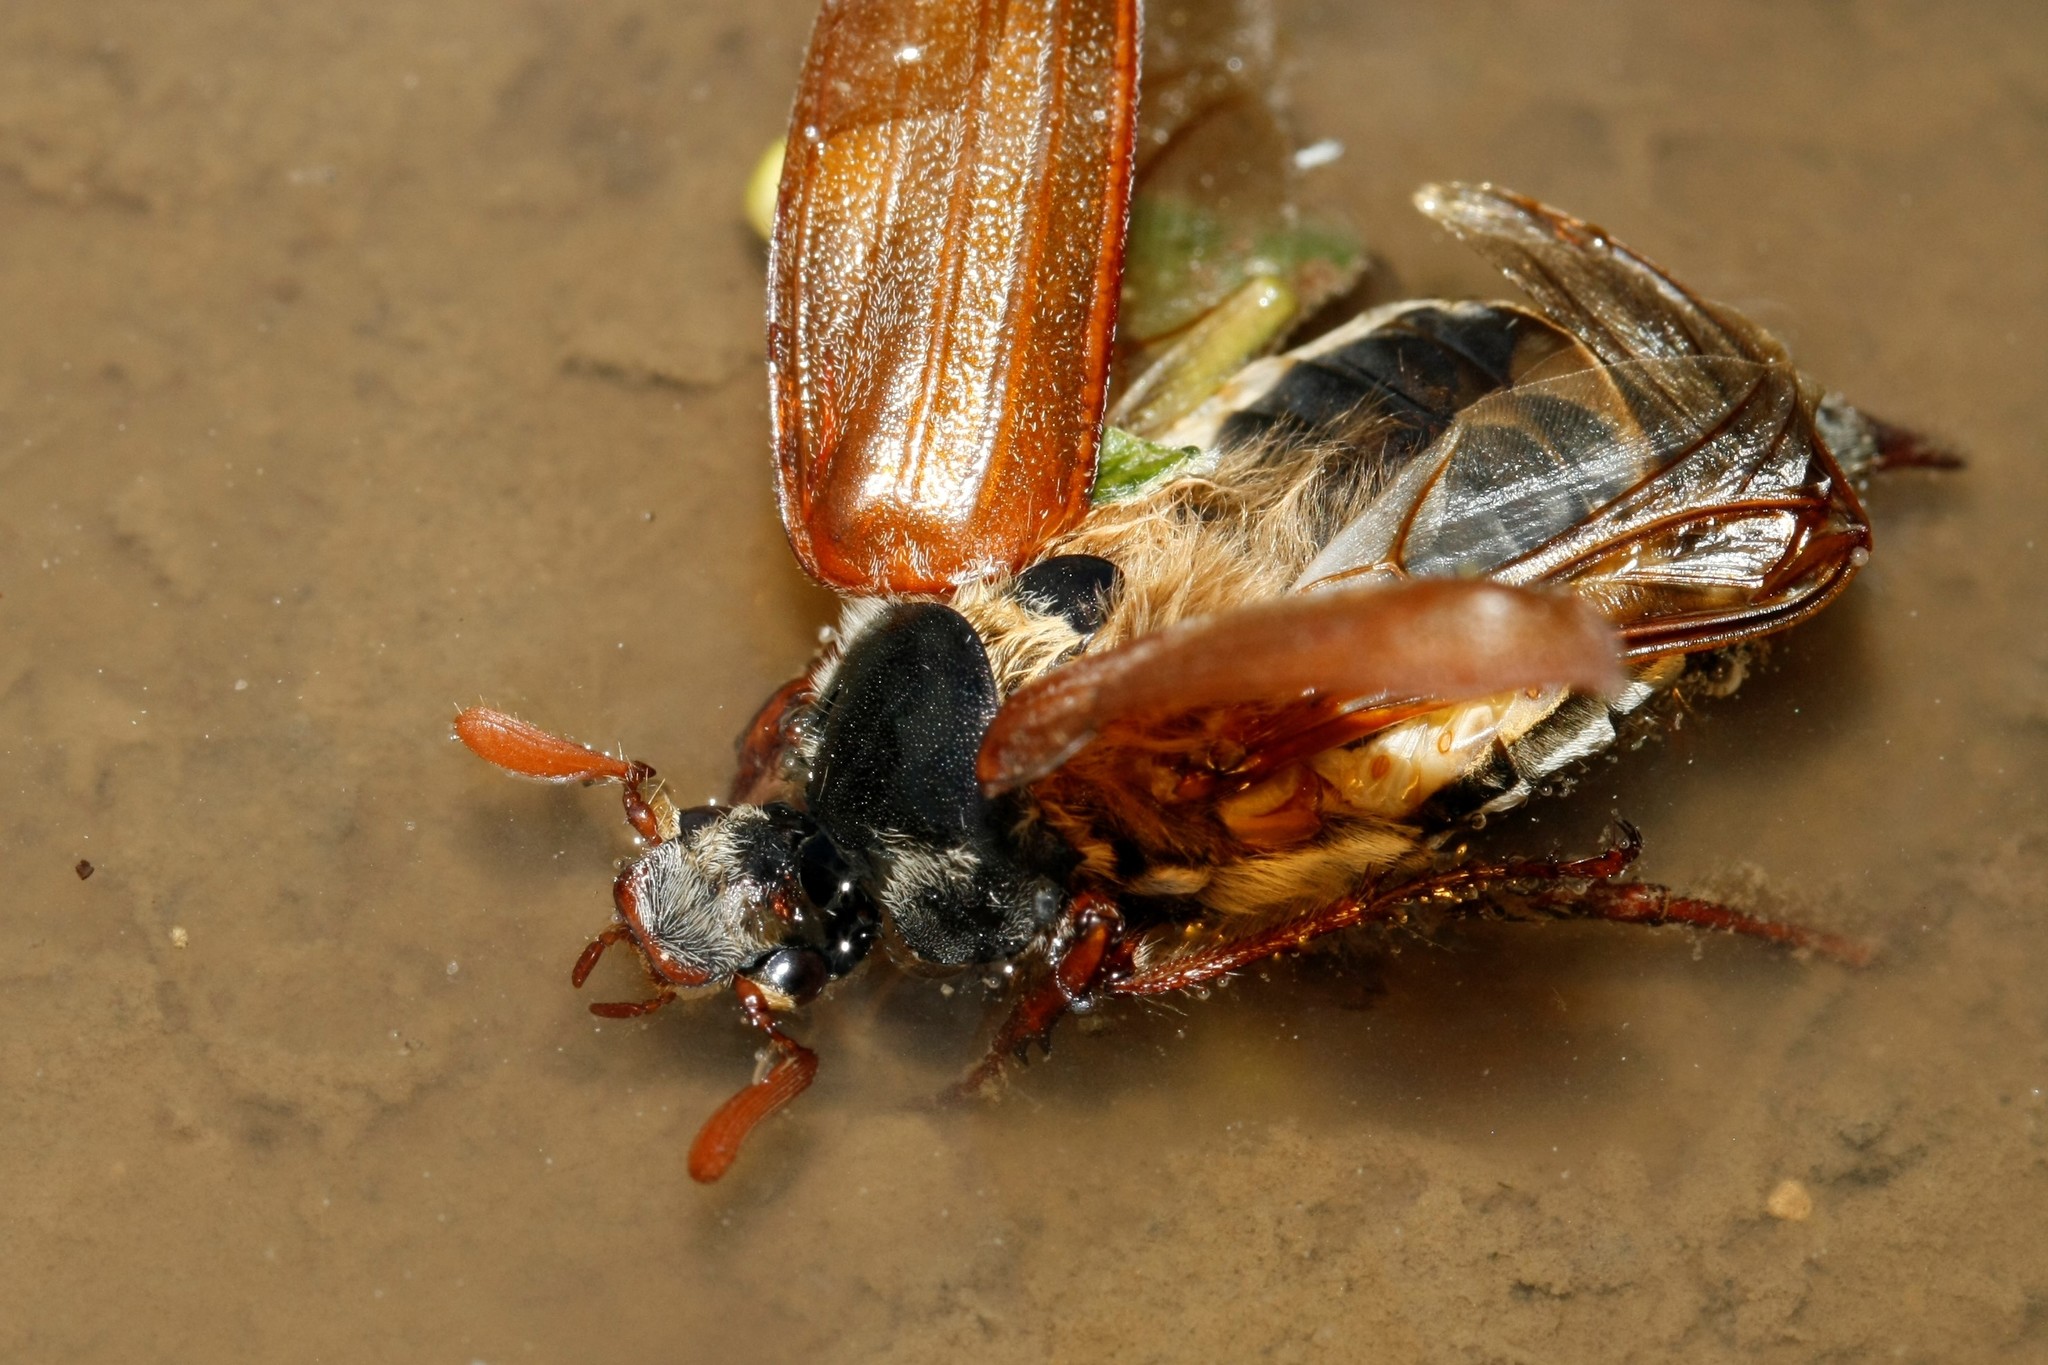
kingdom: Animalia
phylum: Arthropoda
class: Insecta
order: Coleoptera
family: Scarabaeidae
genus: Melolontha
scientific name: Melolontha melolontha
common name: Cockchafer maybeetle
